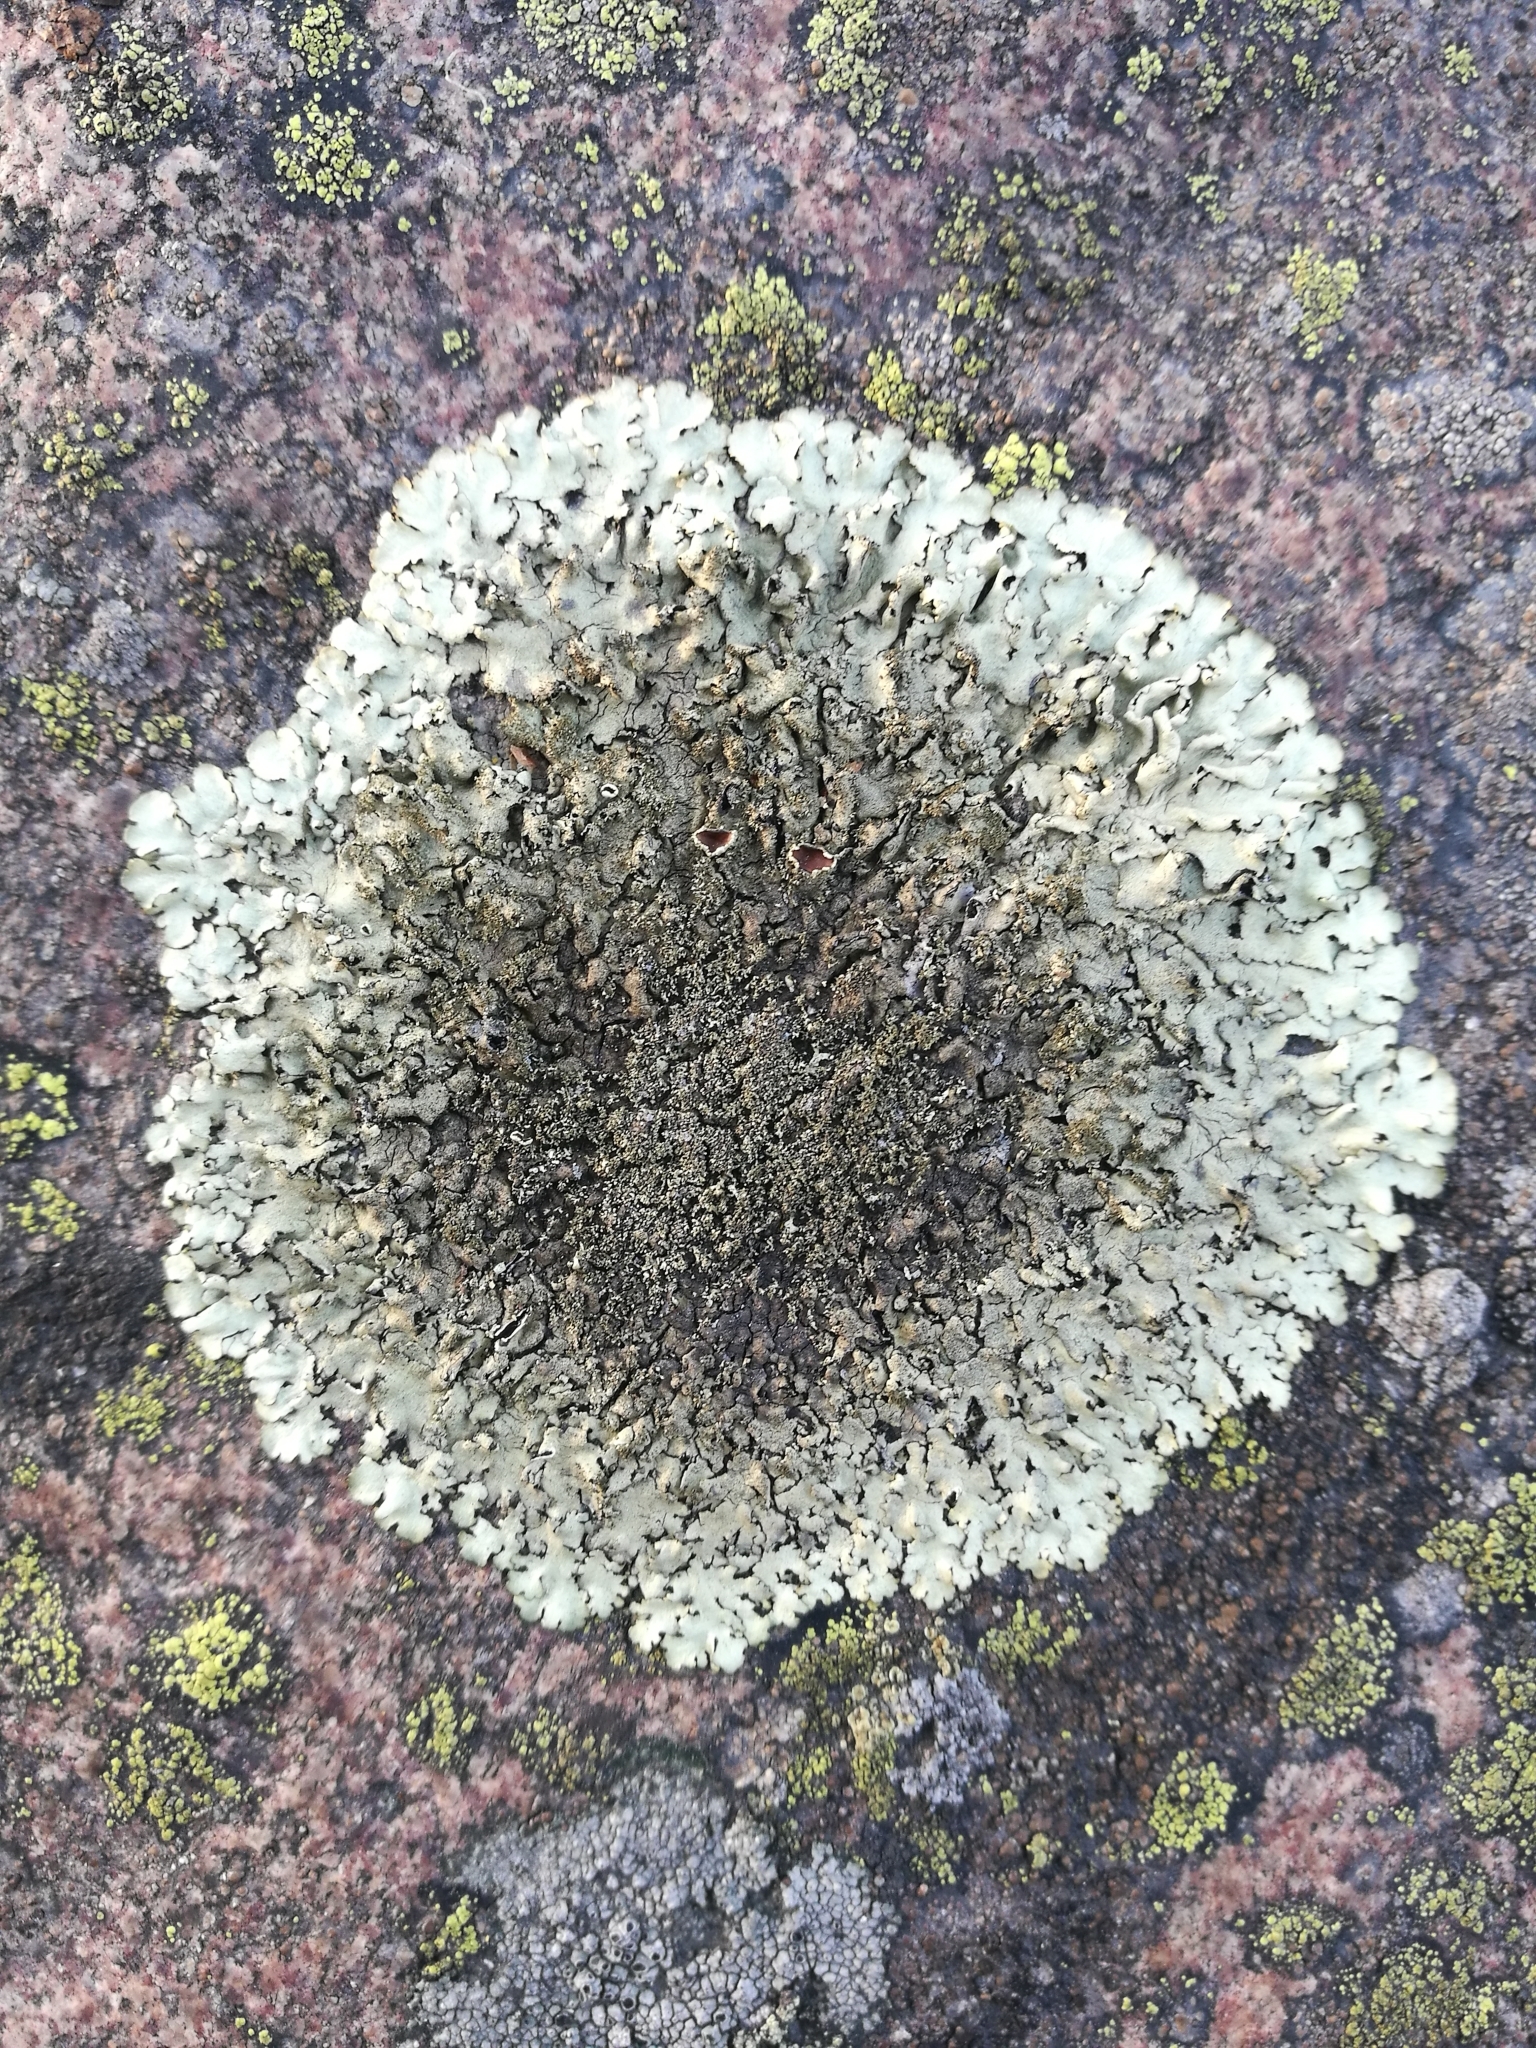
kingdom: Fungi
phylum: Ascomycota
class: Lecanoromycetes
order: Lecanorales
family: Parmeliaceae
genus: Xanthoparmelia
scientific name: Xanthoparmelia conspersa
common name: Peppered rock shield
